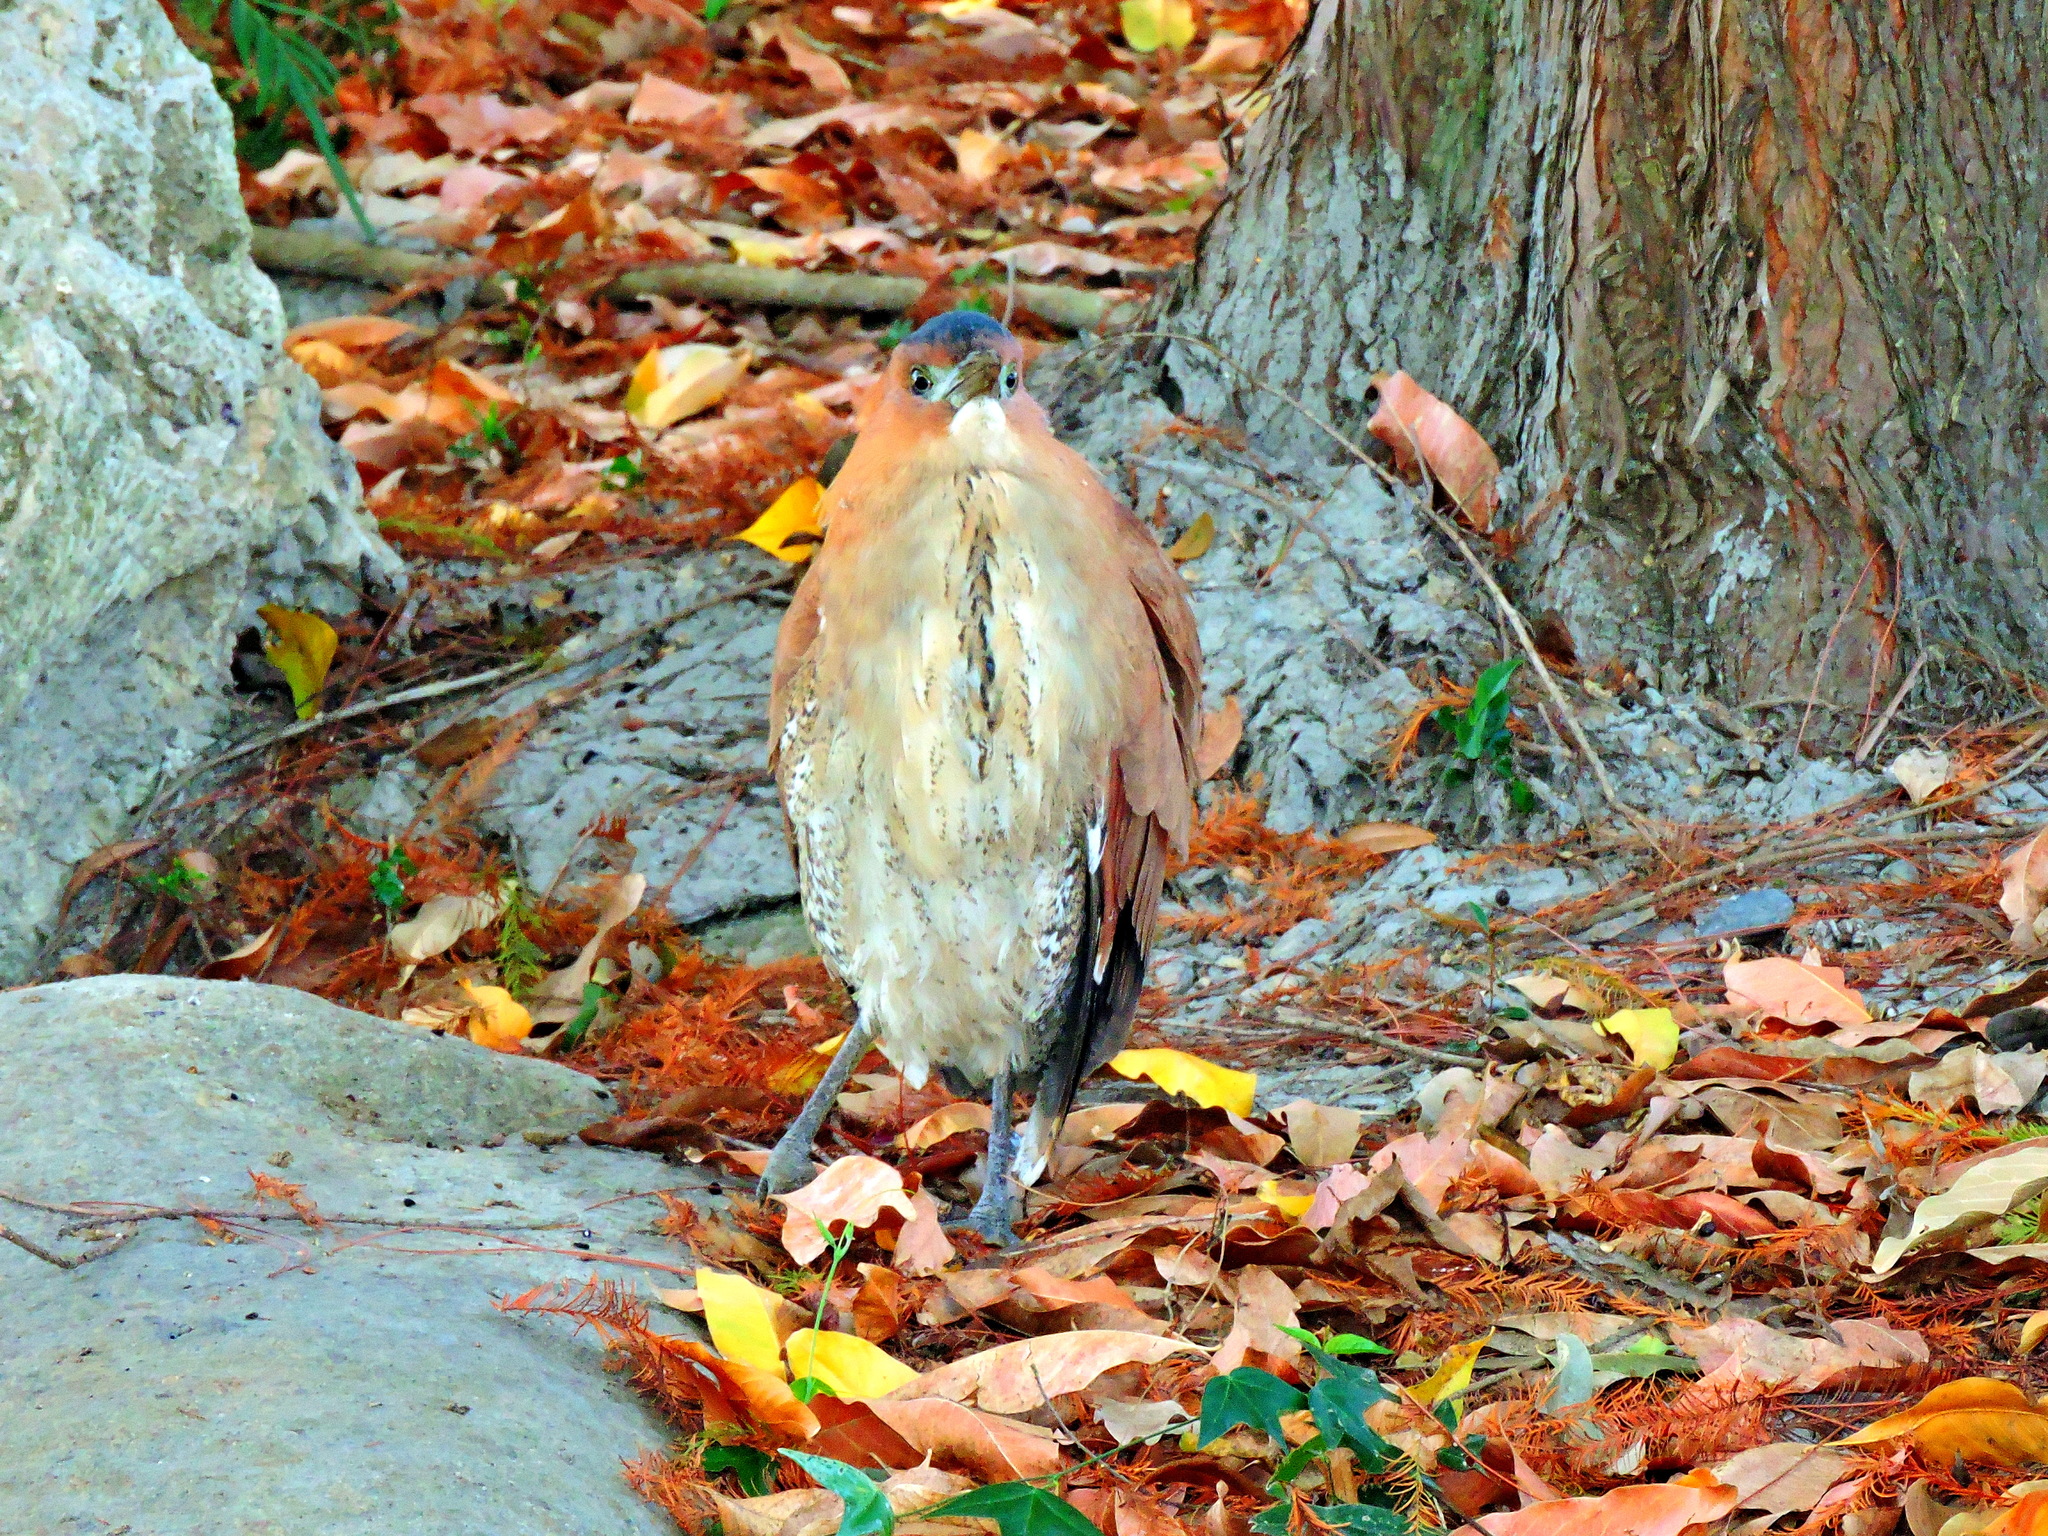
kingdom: Animalia
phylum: Chordata
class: Aves
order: Pelecaniformes
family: Ardeidae
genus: Gorsachius
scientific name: Gorsachius melanolophus
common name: Malayan night heron
